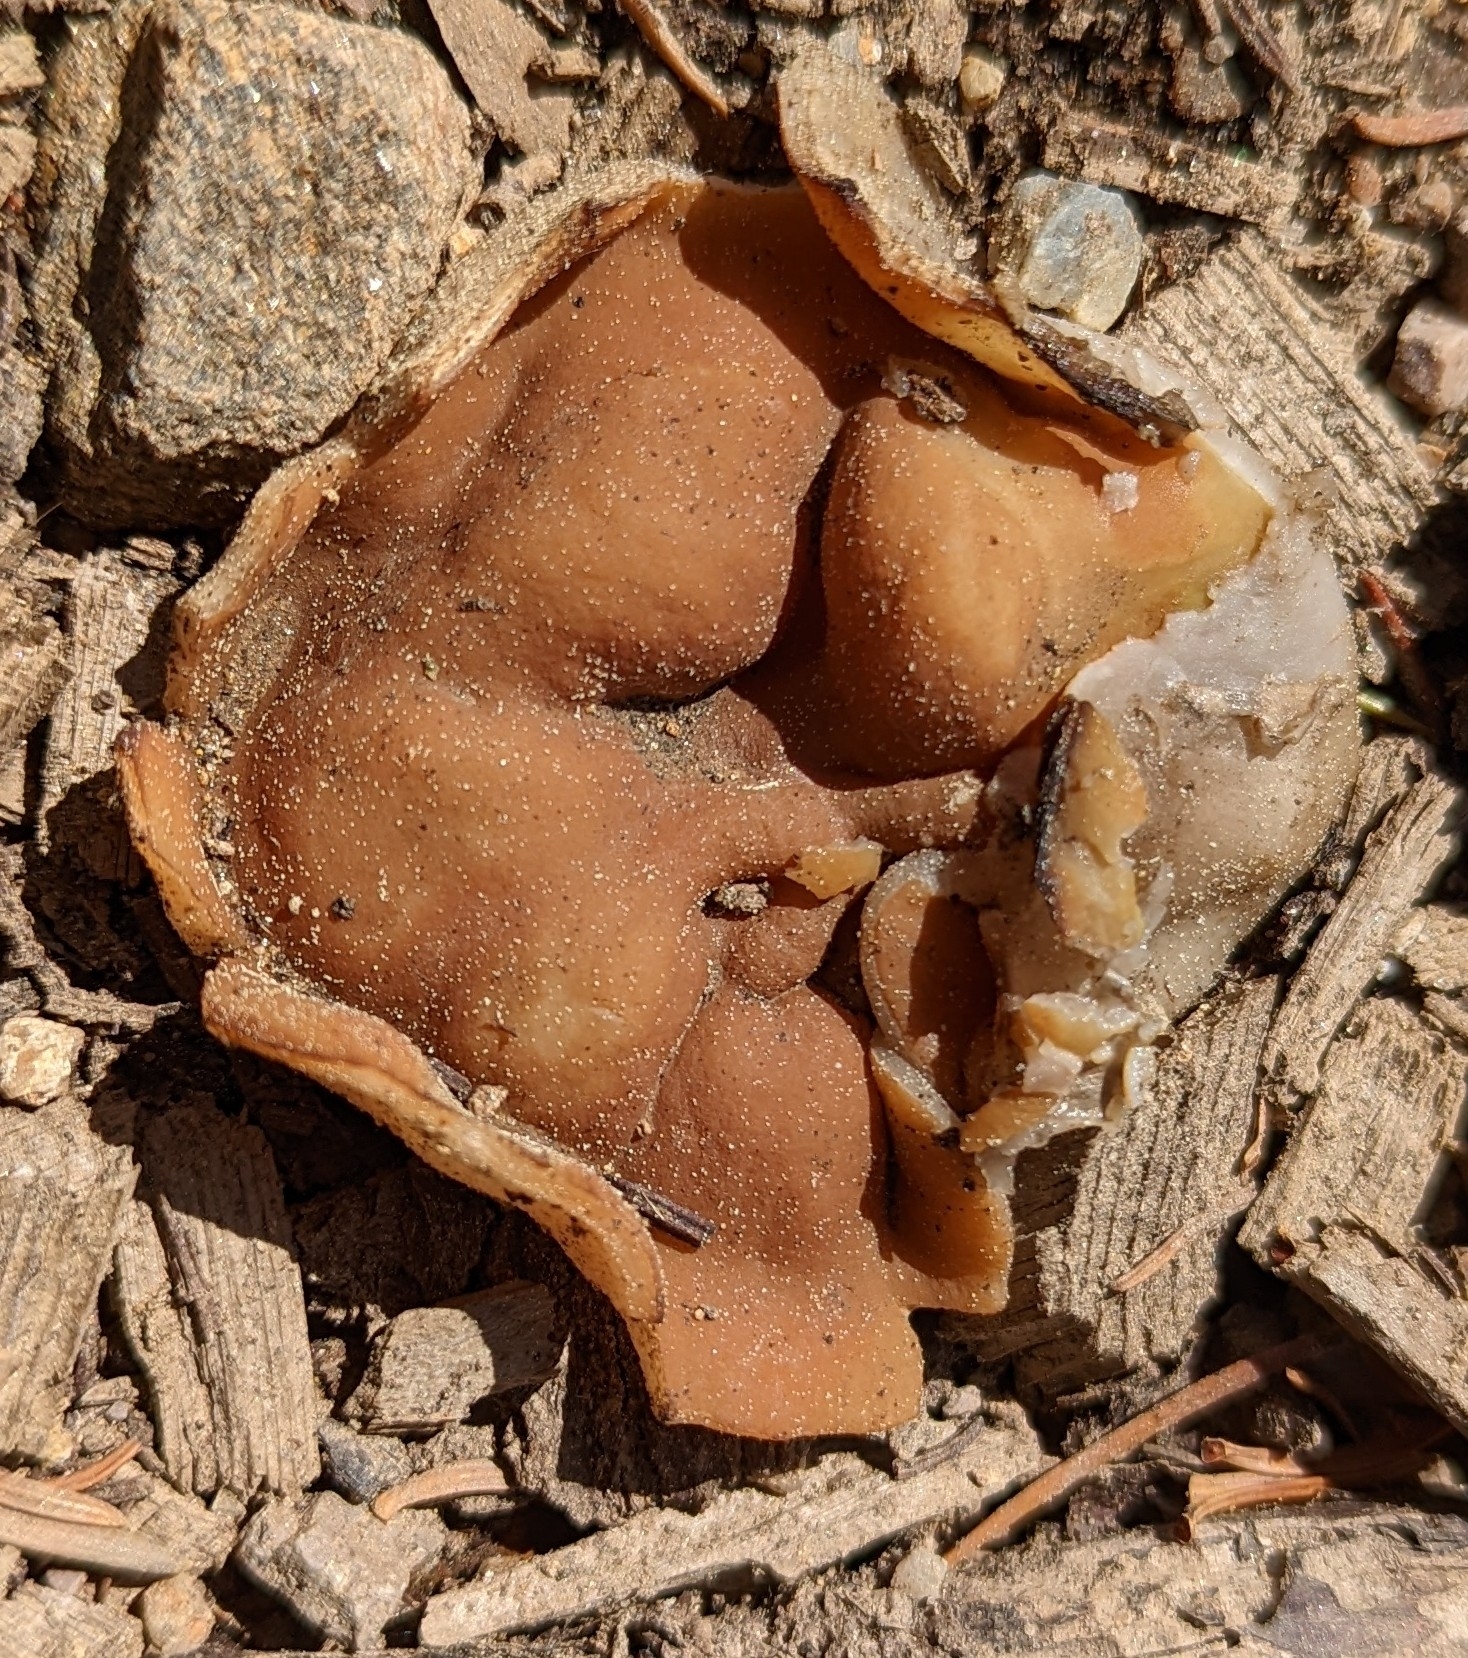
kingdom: Fungi
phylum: Ascomycota
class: Pezizomycetes
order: Pezizales
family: Discinaceae
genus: Discina
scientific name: Discina ancilis
